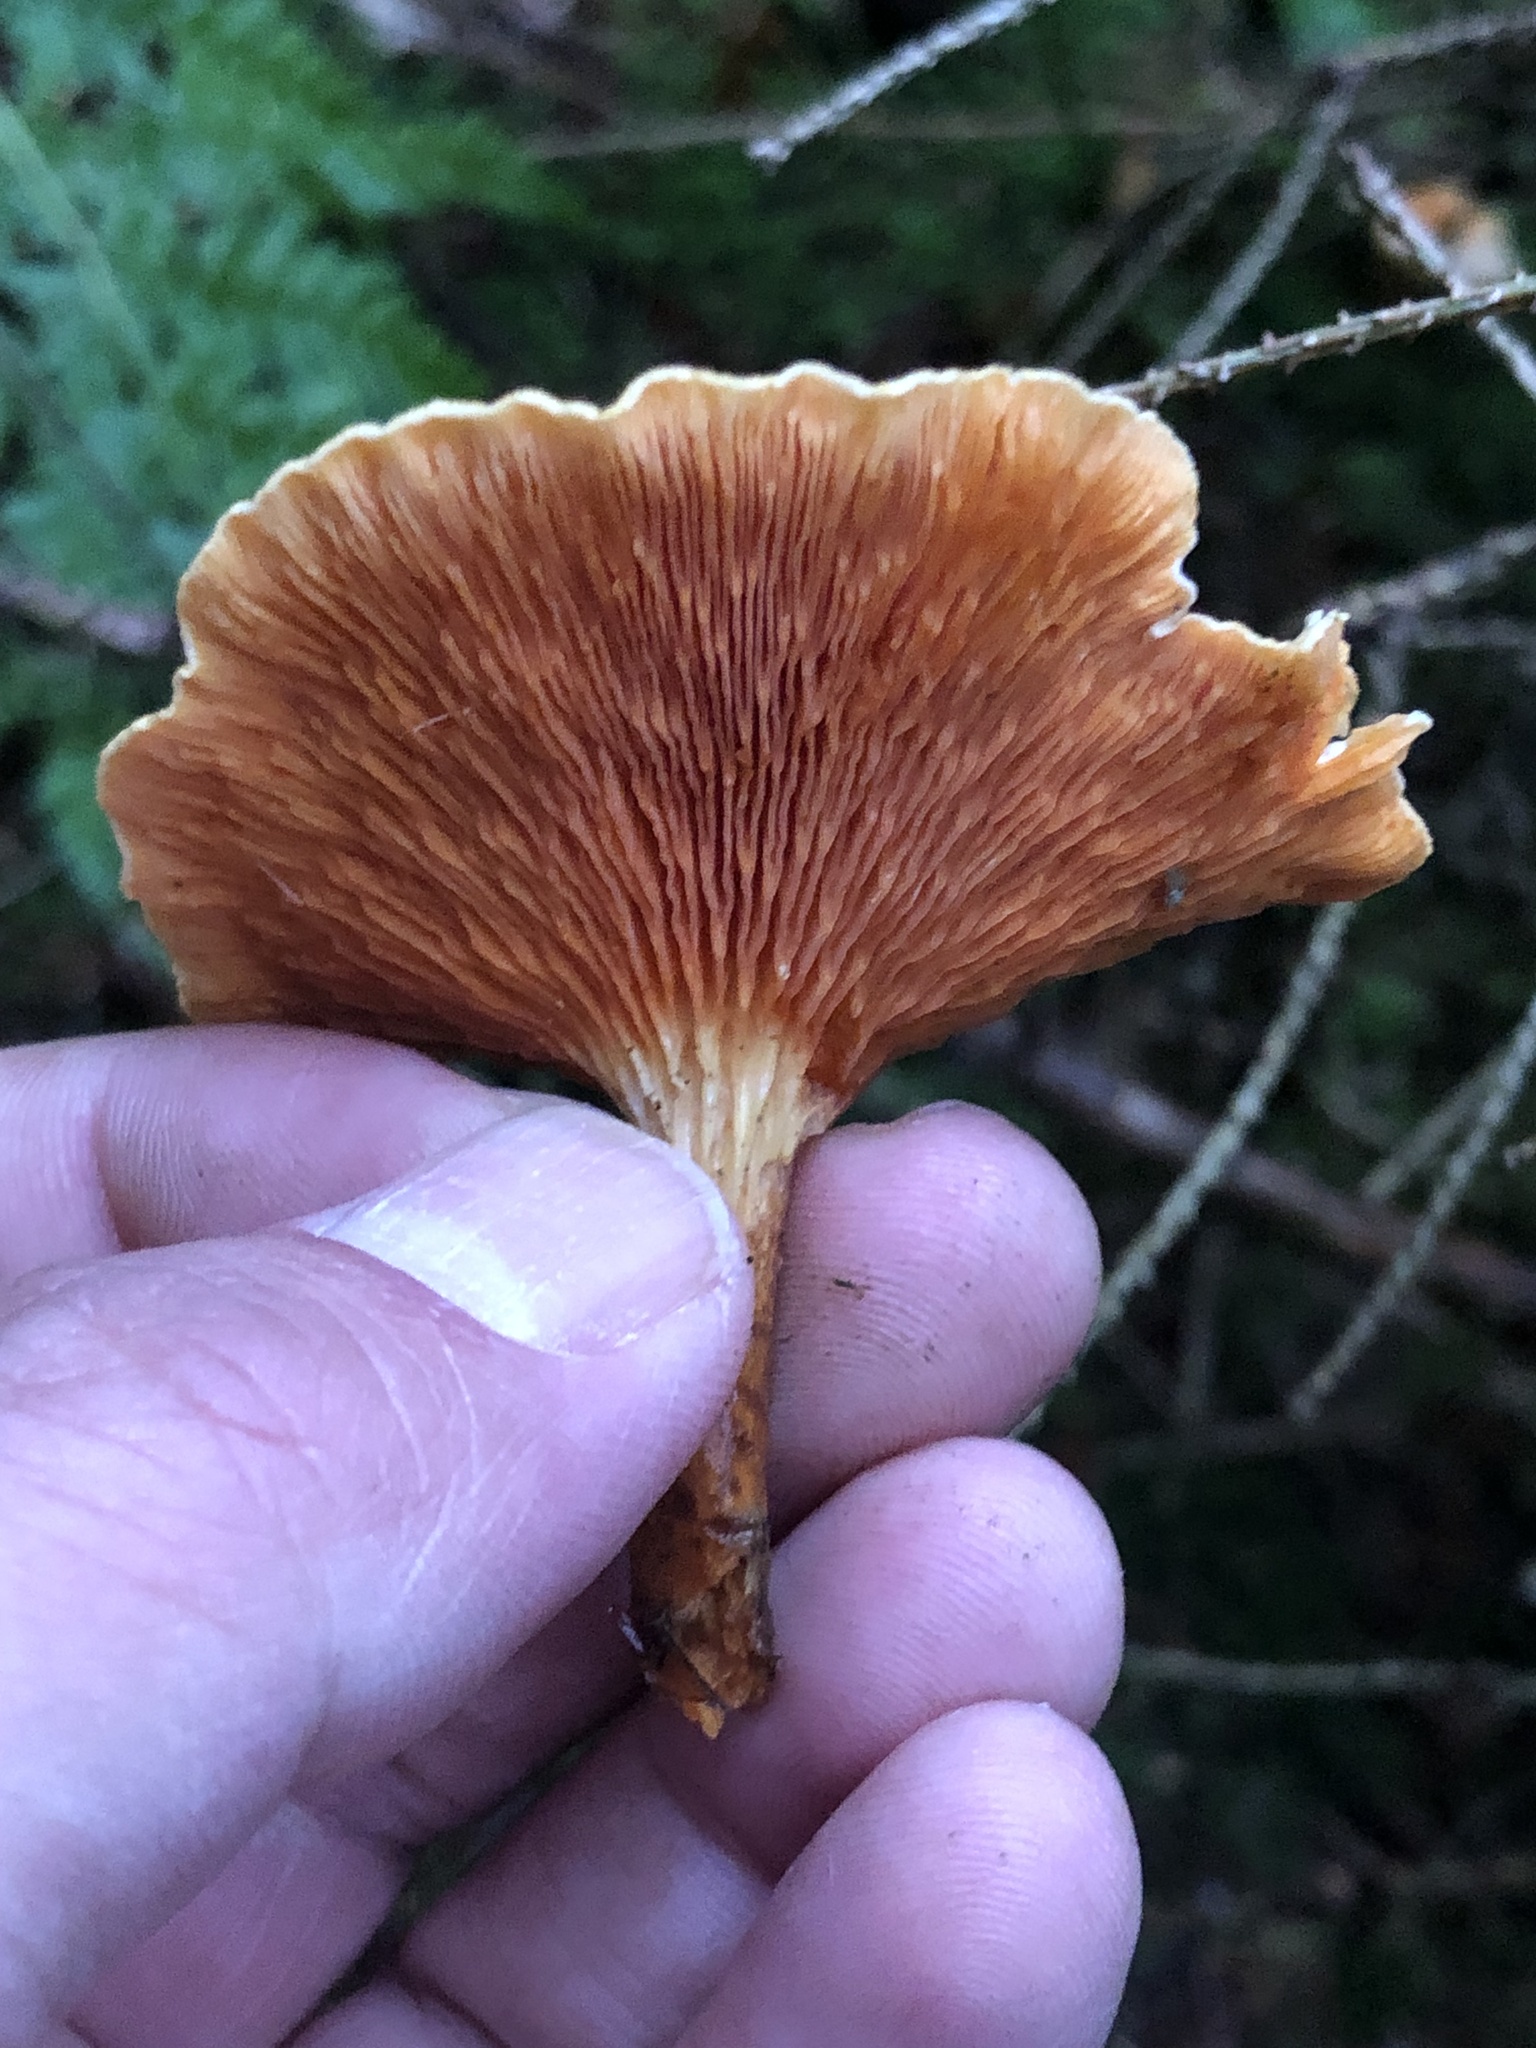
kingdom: Fungi
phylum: Basidiomycota
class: Agaricomycetes
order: Boletales
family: Hygrophoropsidaceae
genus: Hygrophoropsis
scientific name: Hygrophoropsis aurantiaca
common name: False chanterelle
